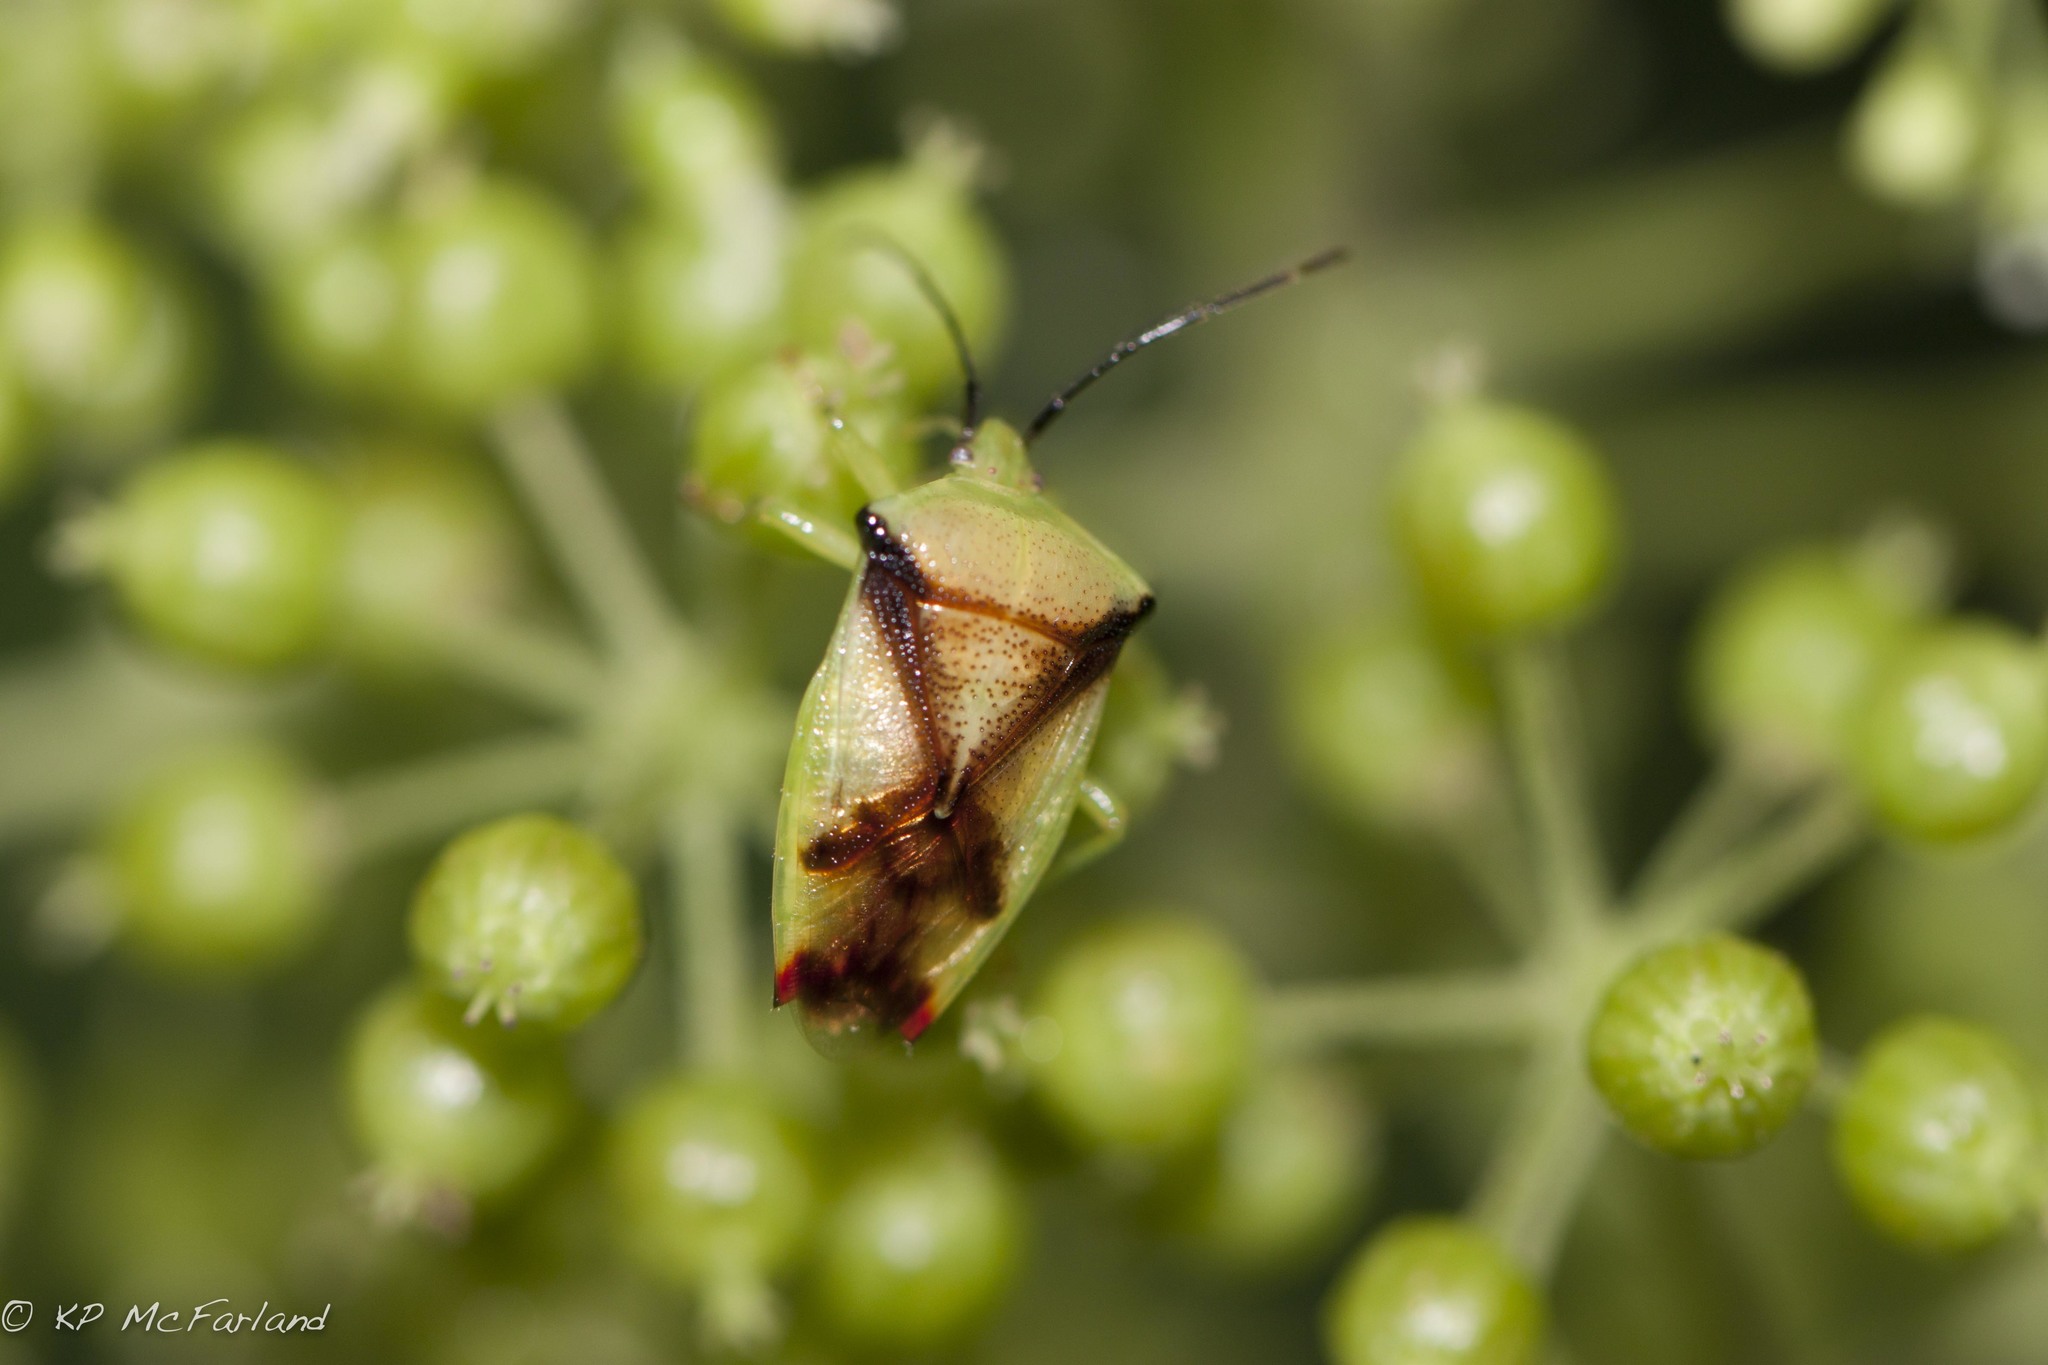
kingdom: Animalia
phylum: Arthropoda
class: Insecta
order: Hemiptera
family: Acanthosomatidae
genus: Elasmostethus
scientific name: Elasmostethus atricornis
